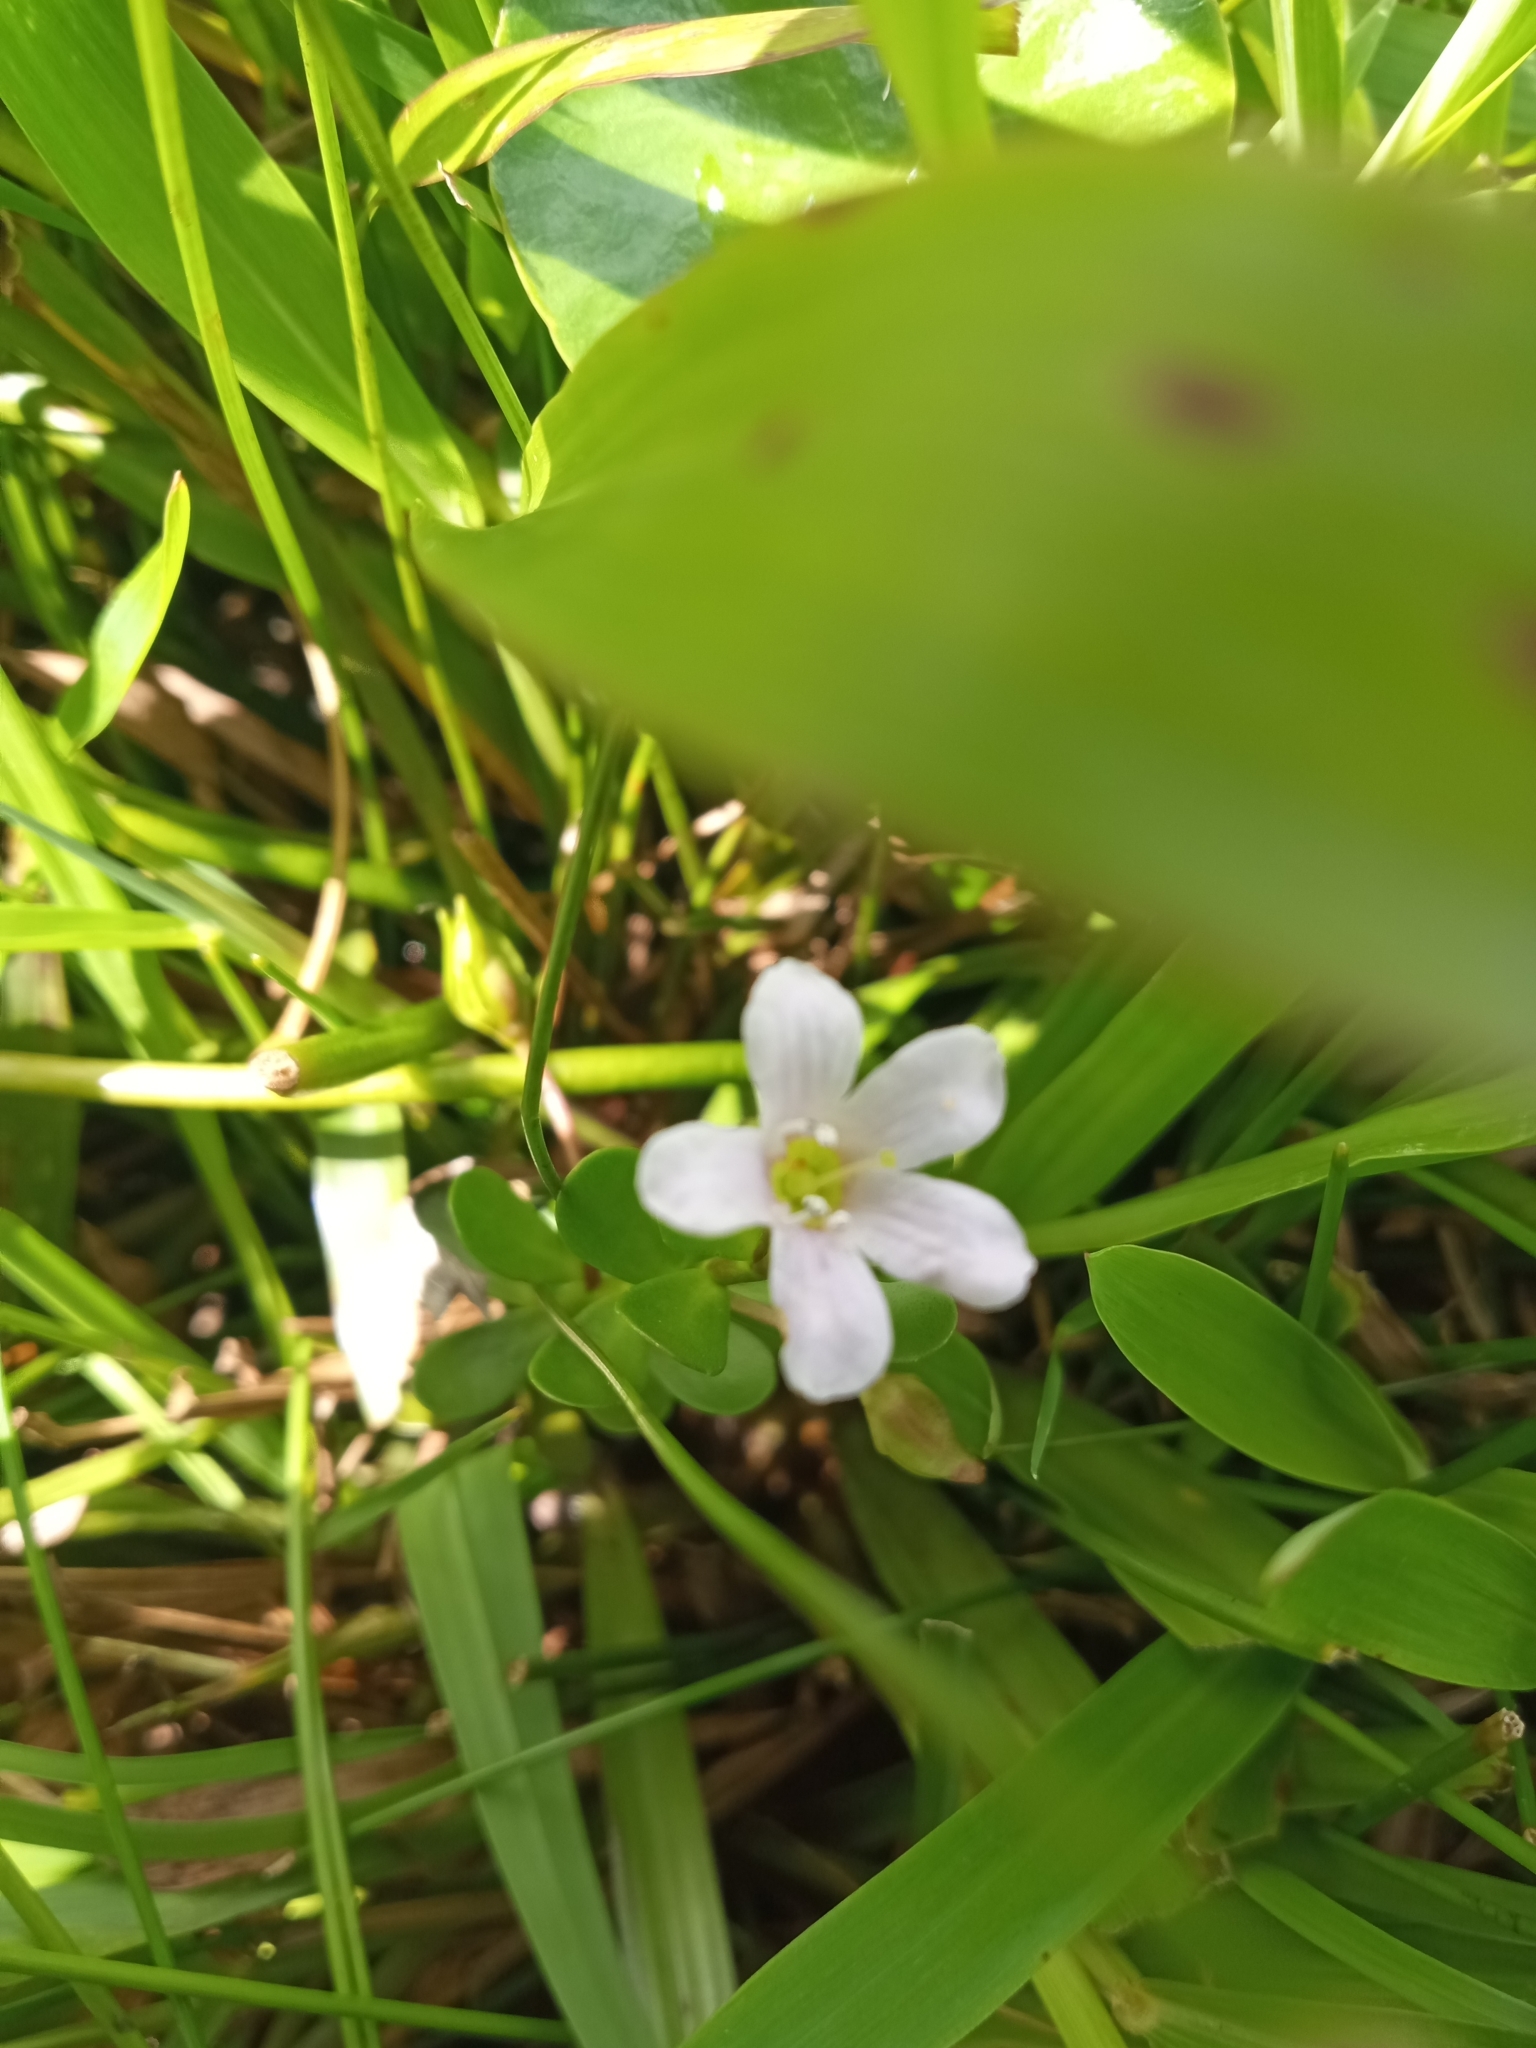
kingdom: Plantae
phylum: Tracheophyta
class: Magnoliopsida
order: Lamiales
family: Plantaginaceae
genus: Bacopa
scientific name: Bacopa monnieri
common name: Indian-pennywort
